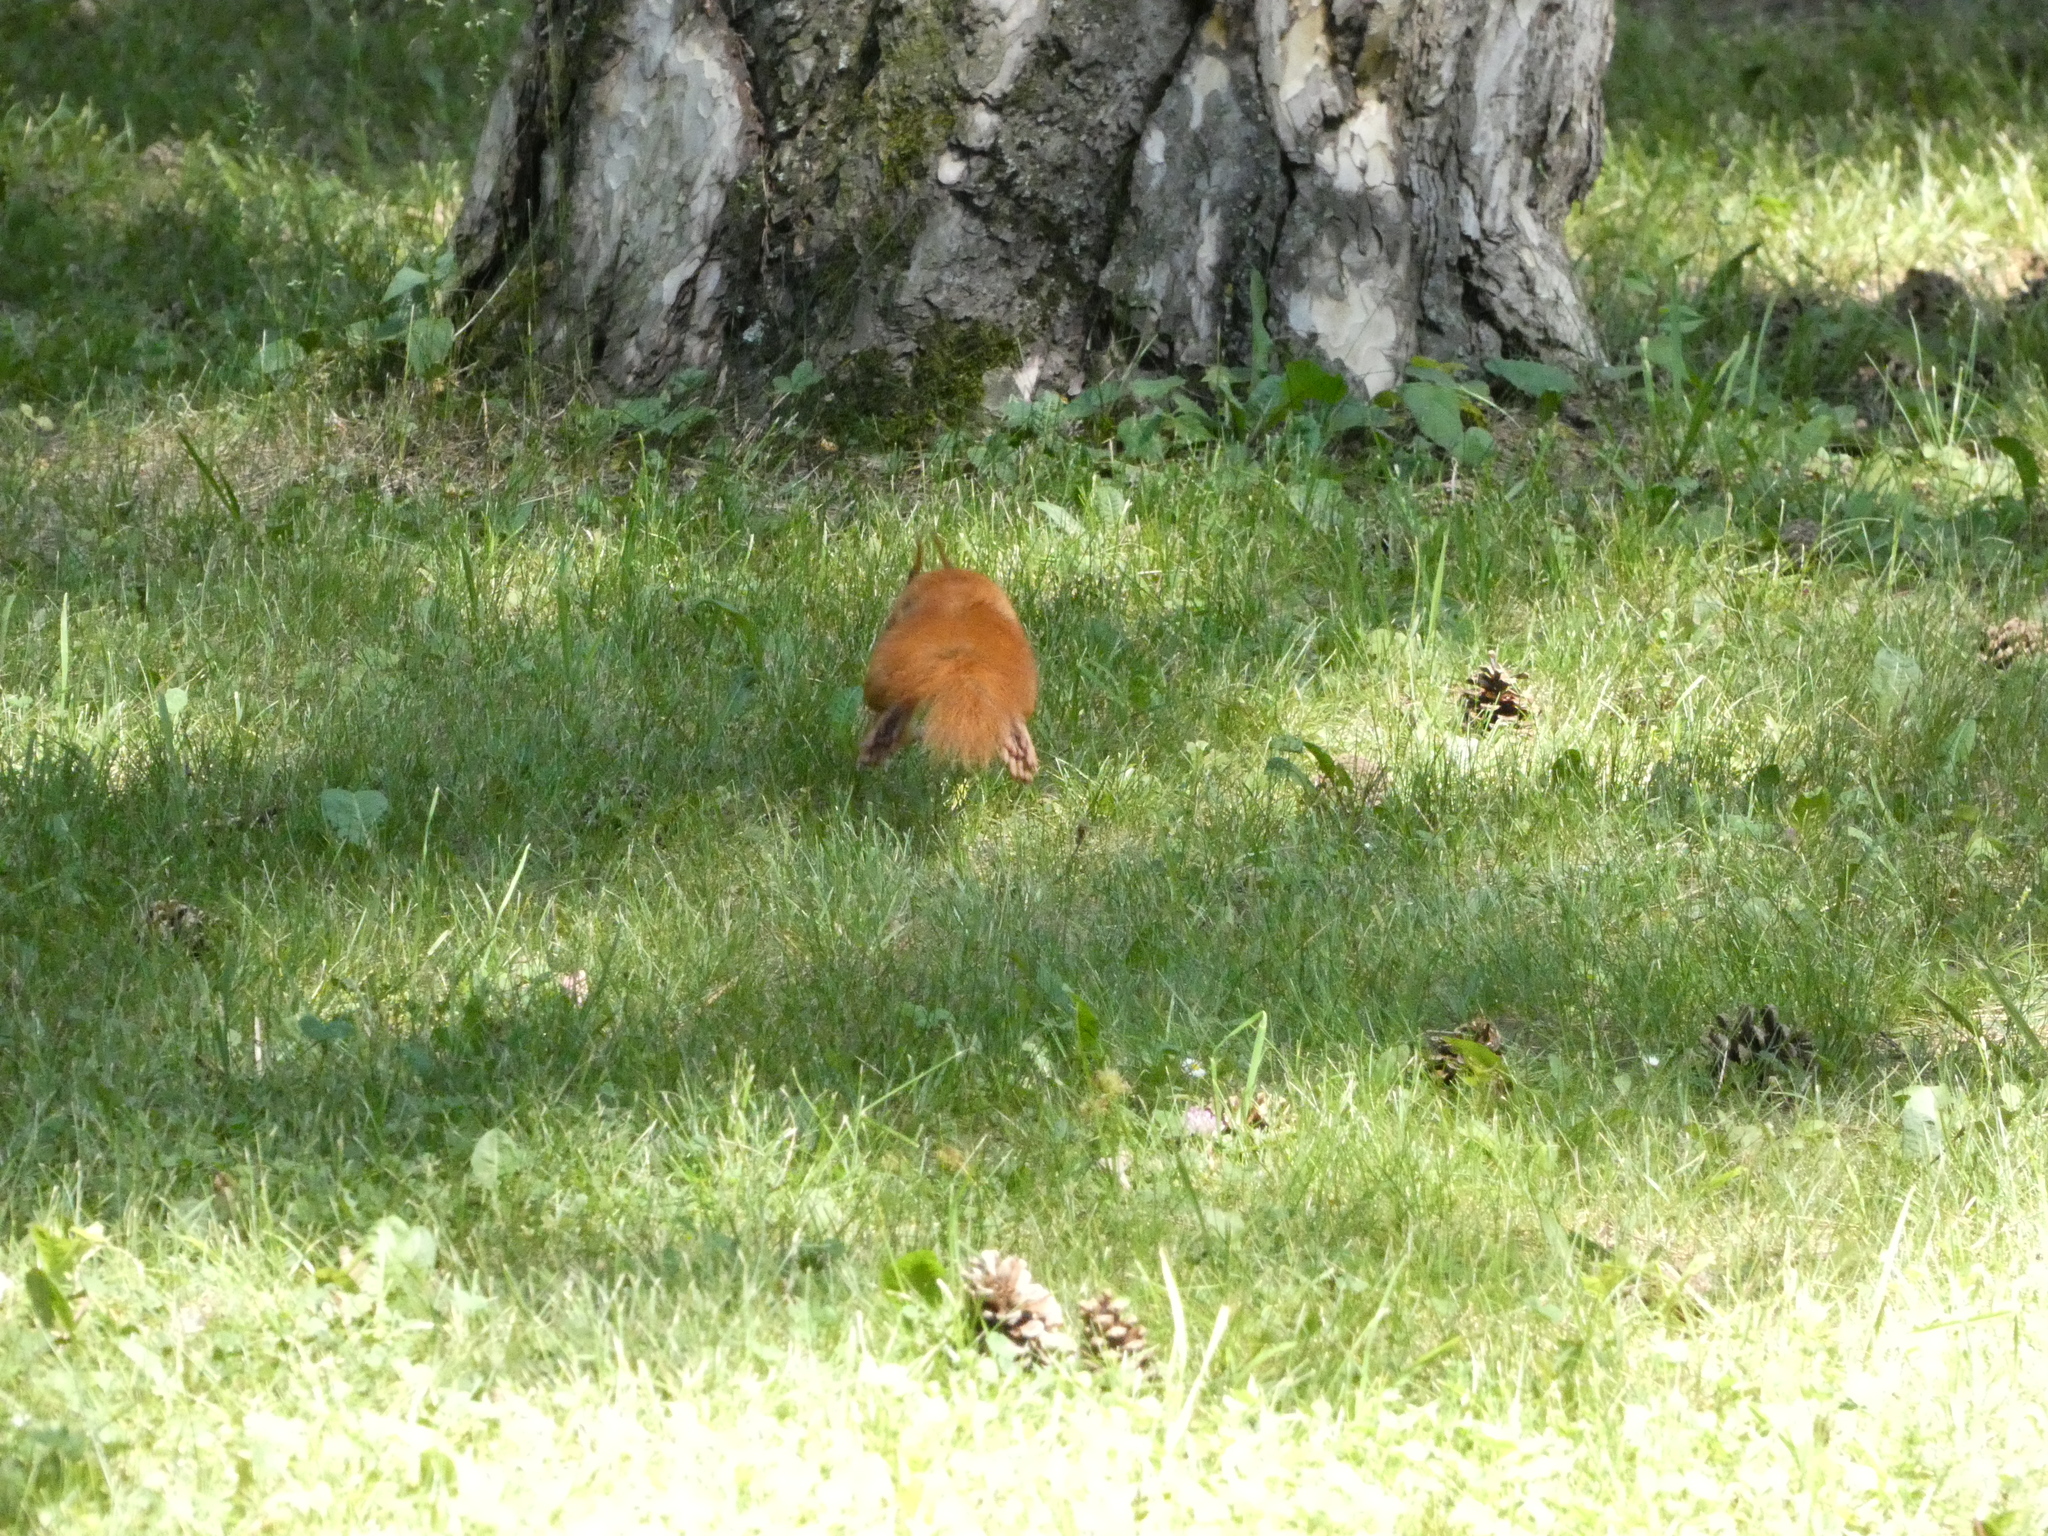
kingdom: Animalia
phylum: Chordata
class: Mammalia
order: Rodentia
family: Sciuridae
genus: Sciurus
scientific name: Sciurus vulgaris
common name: Eurasian red squirrel
